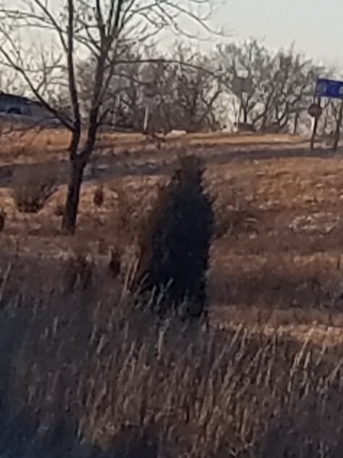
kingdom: Plantae
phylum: Tracheophyta
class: Pinopsida
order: Pinales
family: Cupressaceae
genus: Juniperus
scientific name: Juniperus virginiana
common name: Red juniper
